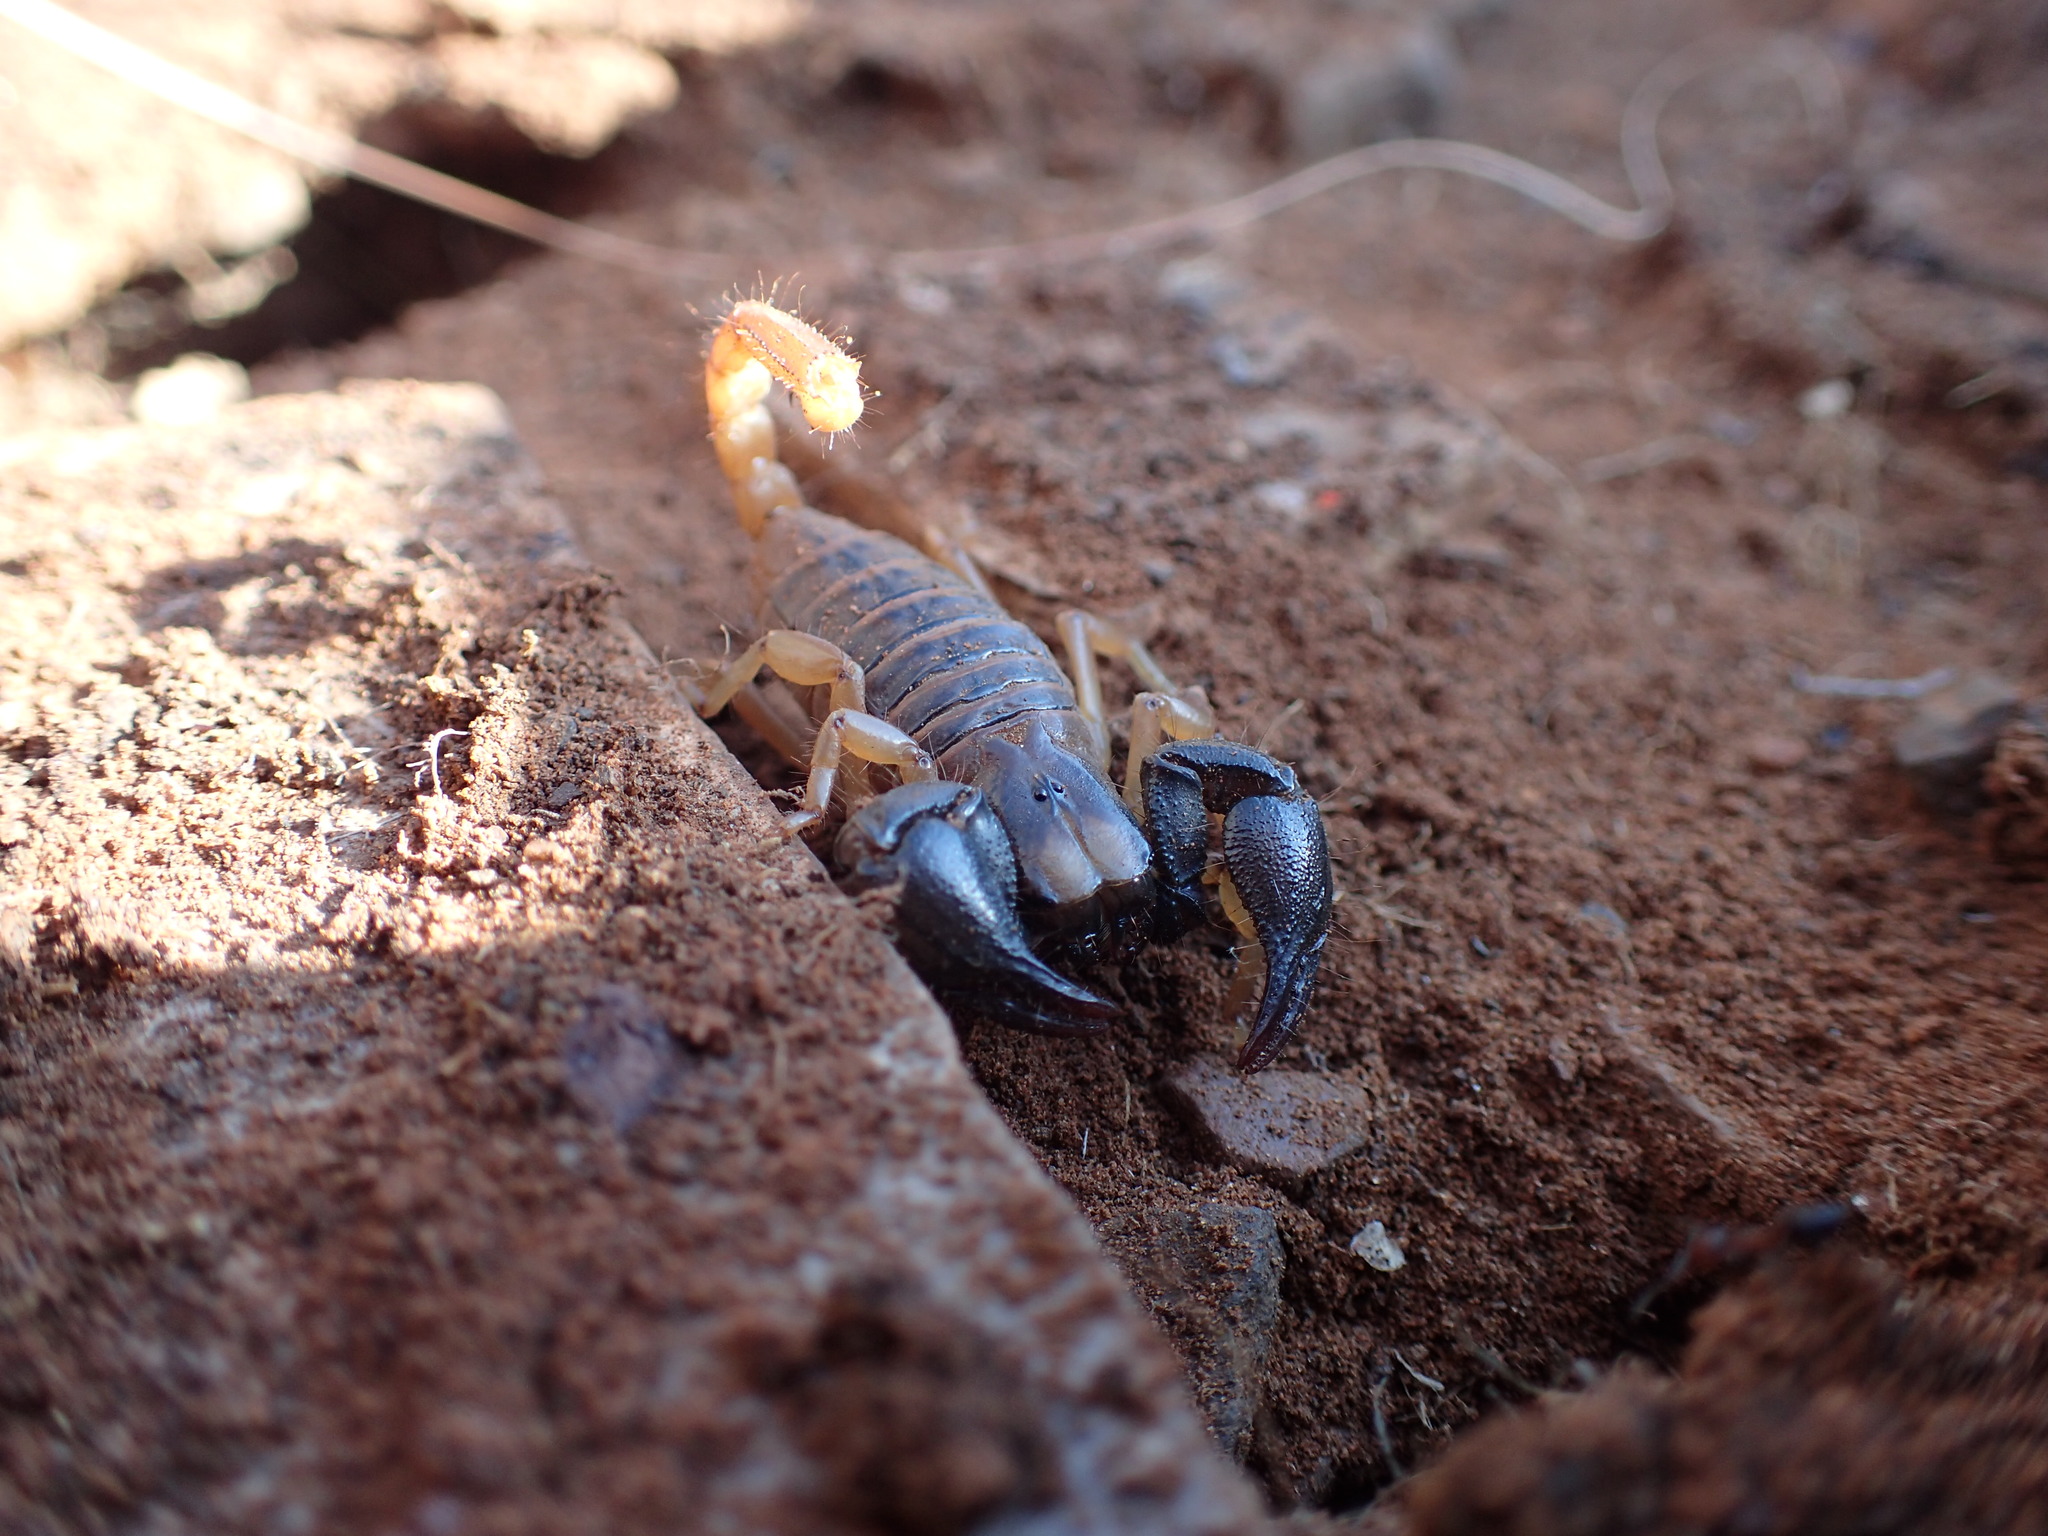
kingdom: Animalia
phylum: Arthropoda
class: Arachnida
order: Scorpiones
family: Scorpionidae
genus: Opistophthalmus
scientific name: Opistophthalmus pluridens
